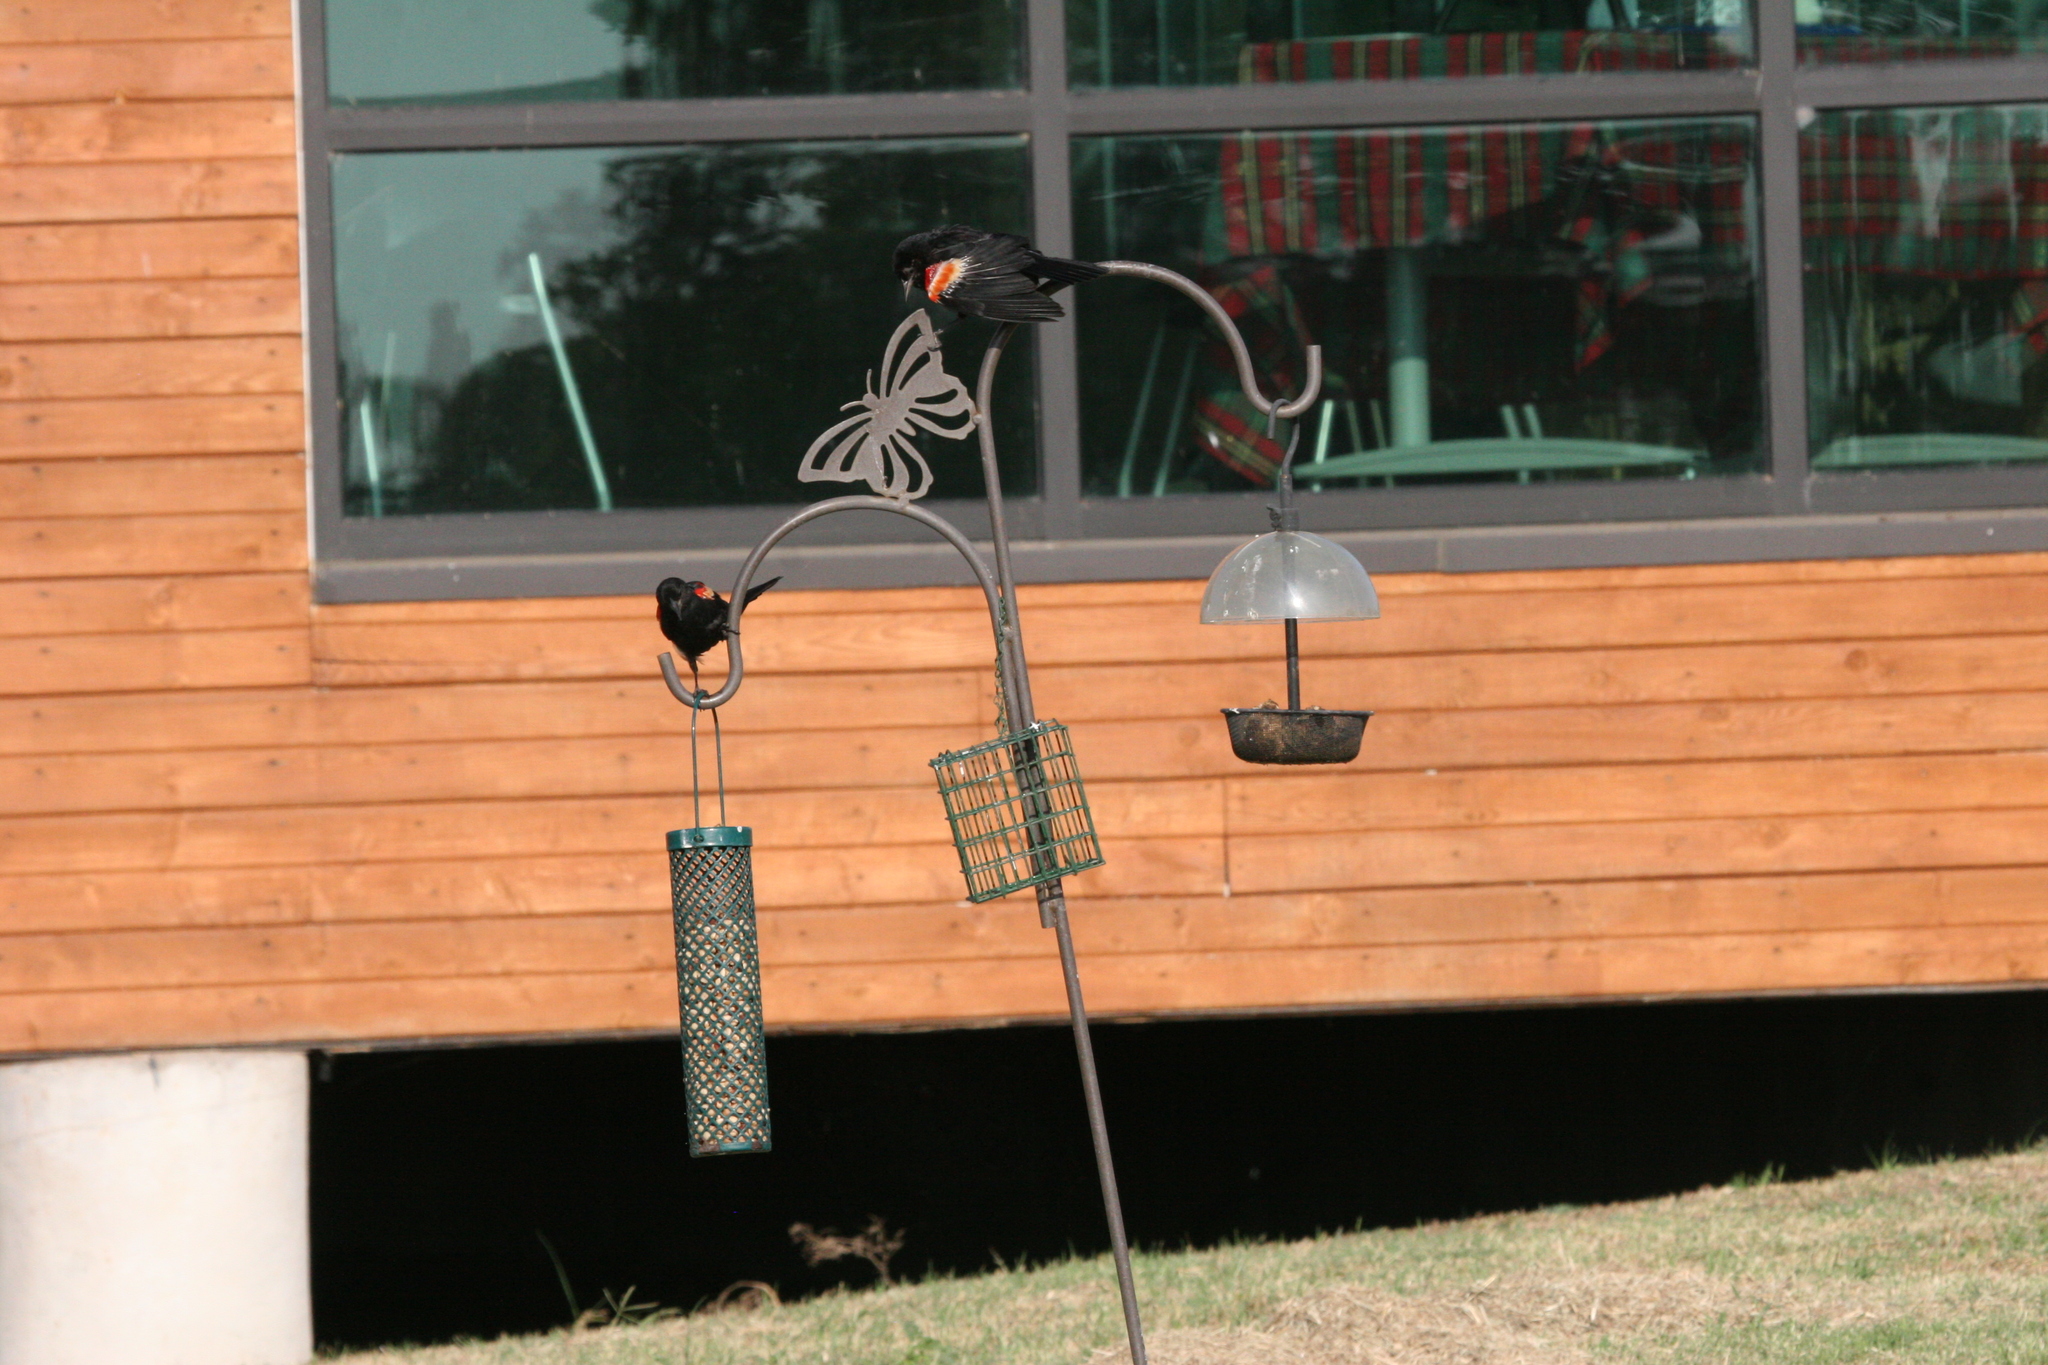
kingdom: Animalia
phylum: Chordata
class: Aves
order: Passeriformes
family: Icteridae
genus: Agelaius
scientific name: Agelaius phoeniceus
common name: Red-winged blackbird
